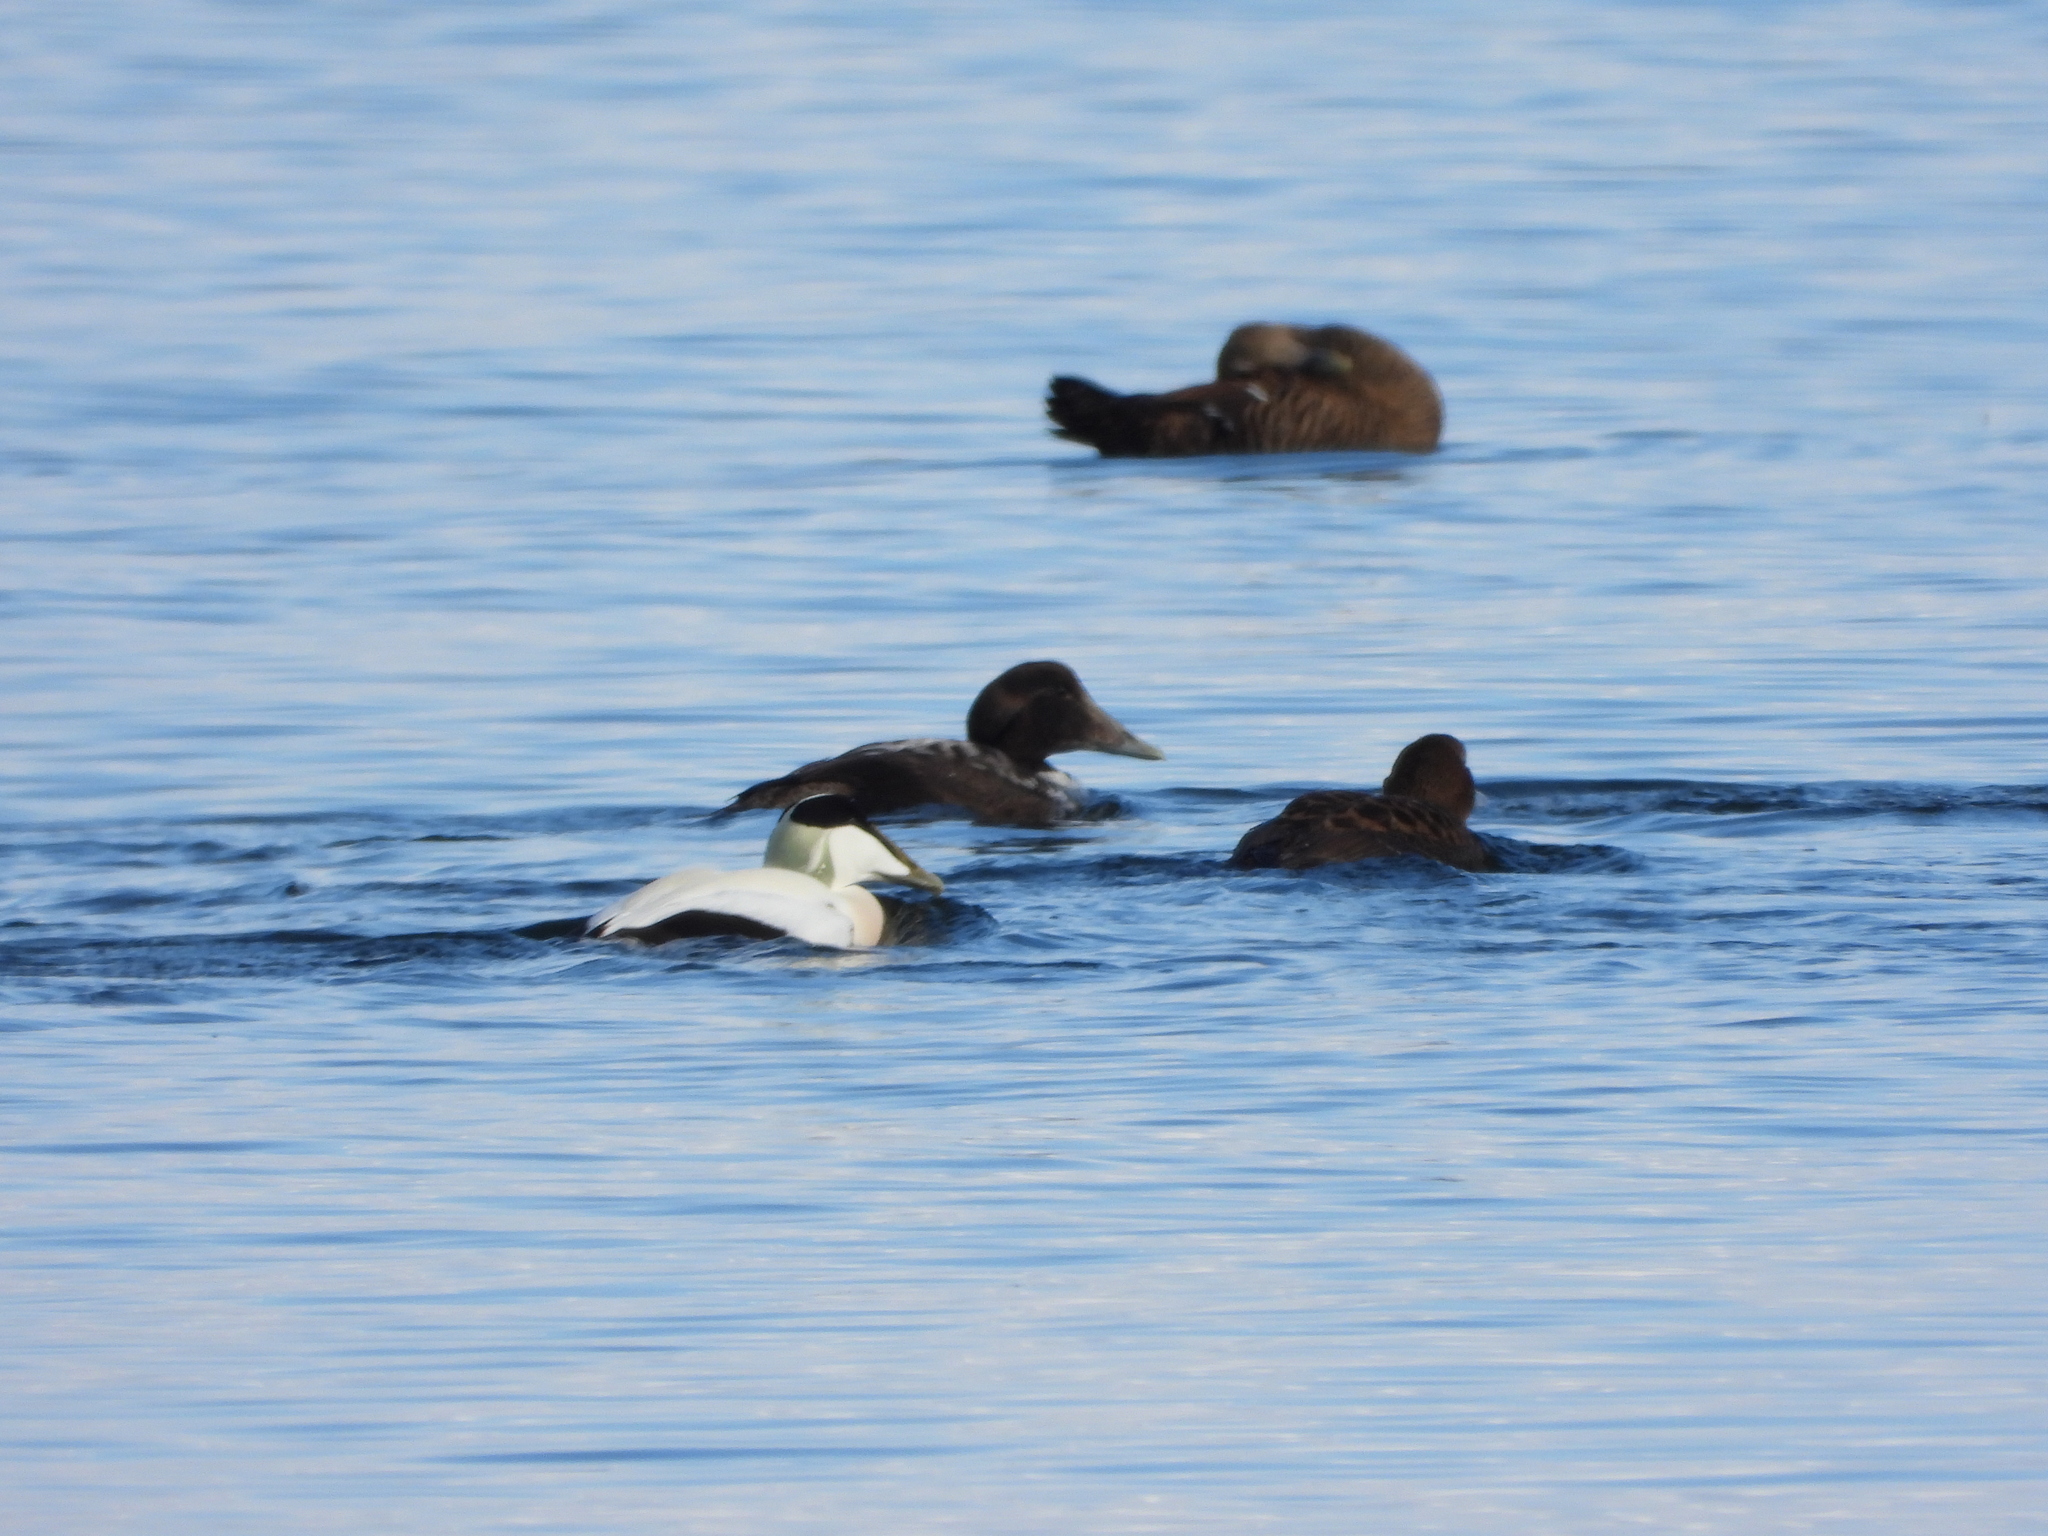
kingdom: Animalia
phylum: Chordata
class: Aves
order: Anseriformes
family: Anatidae
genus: Somateria
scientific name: Somateria mollissima
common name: Common eider
